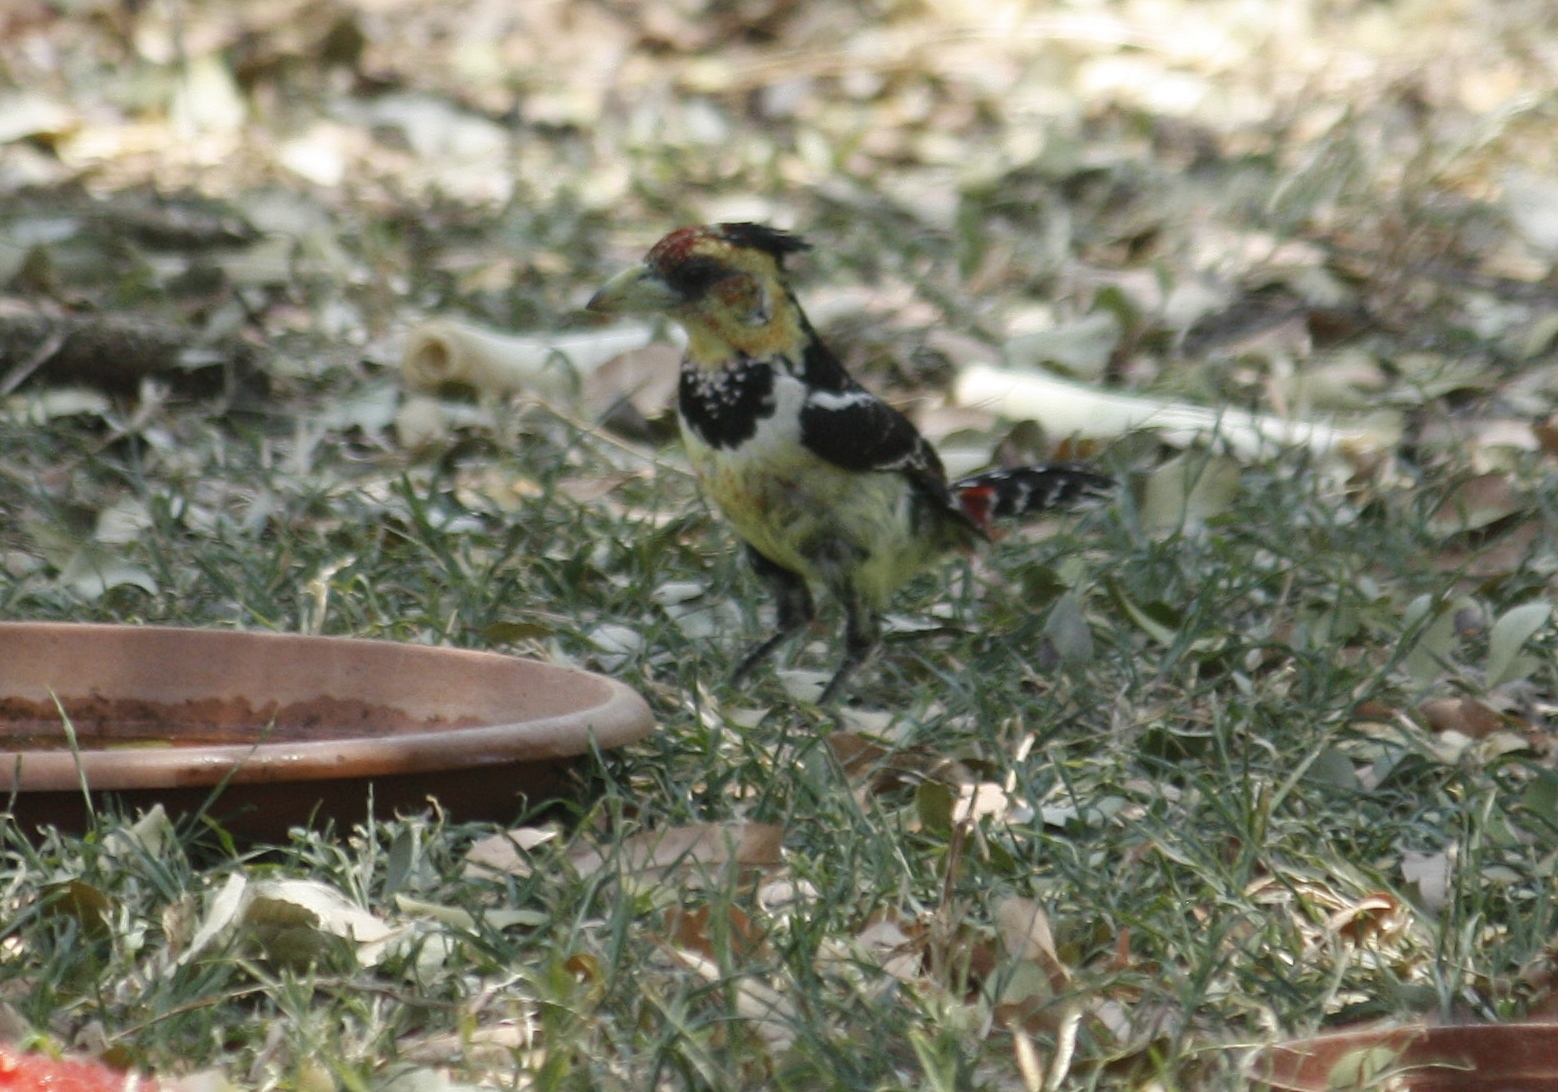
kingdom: Animalia
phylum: Chordata
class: Aves
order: Piciformes
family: Lybiidae
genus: Trachyphonus
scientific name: Trachyphonus vaillantii
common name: Crested barbet
